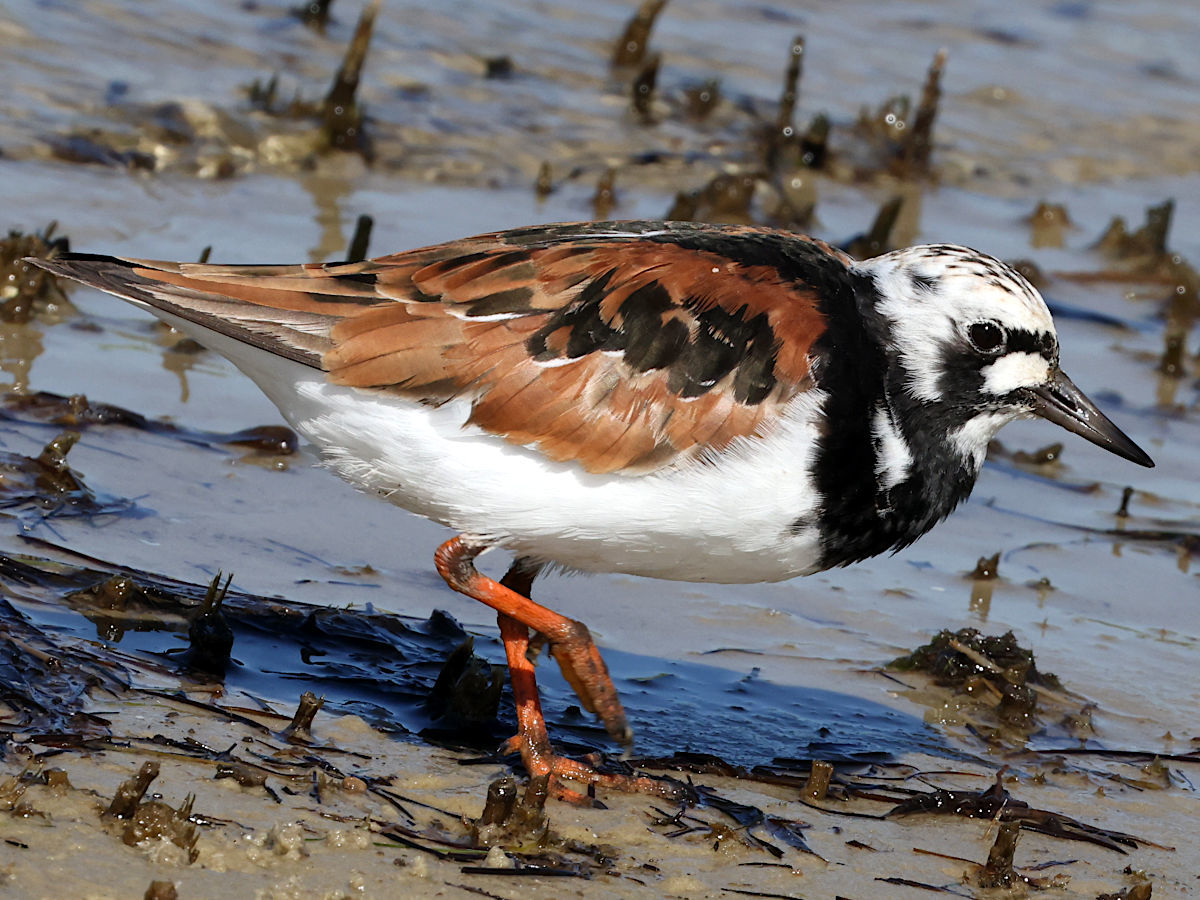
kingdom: Animalia
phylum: Chordata
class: Aves
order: Charadriiformes
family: Scolopacidae
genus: Arenaria
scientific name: Arenaria interpres
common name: Ruddy turnstone
